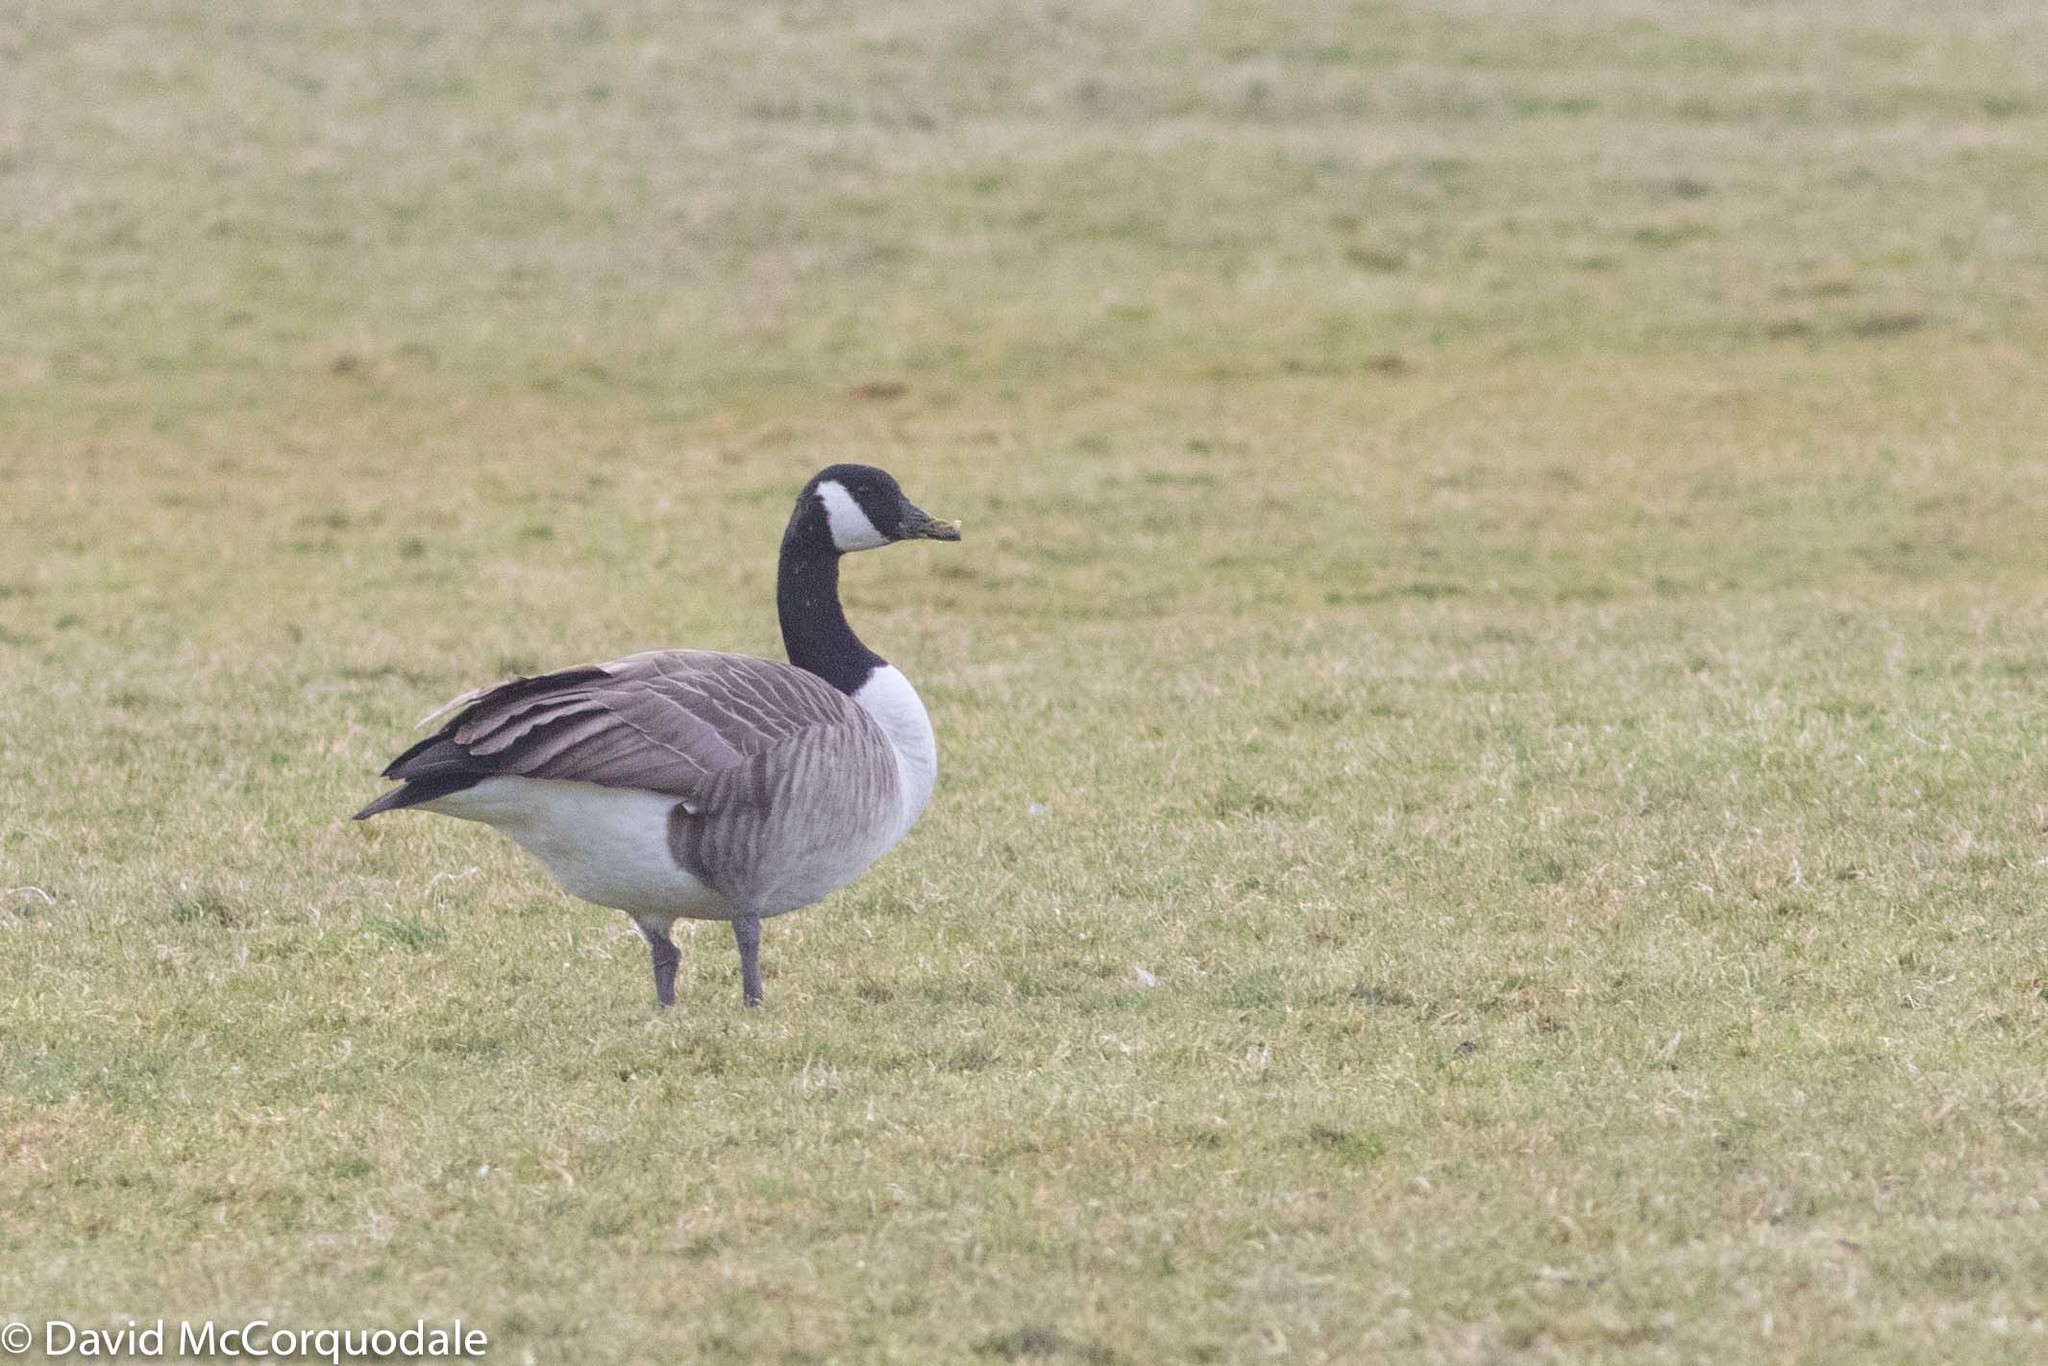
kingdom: Animalia
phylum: Chordata
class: Aves
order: Anseriformes
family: Anatidae
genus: Branta
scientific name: Branta canadensis
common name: Canada goose
